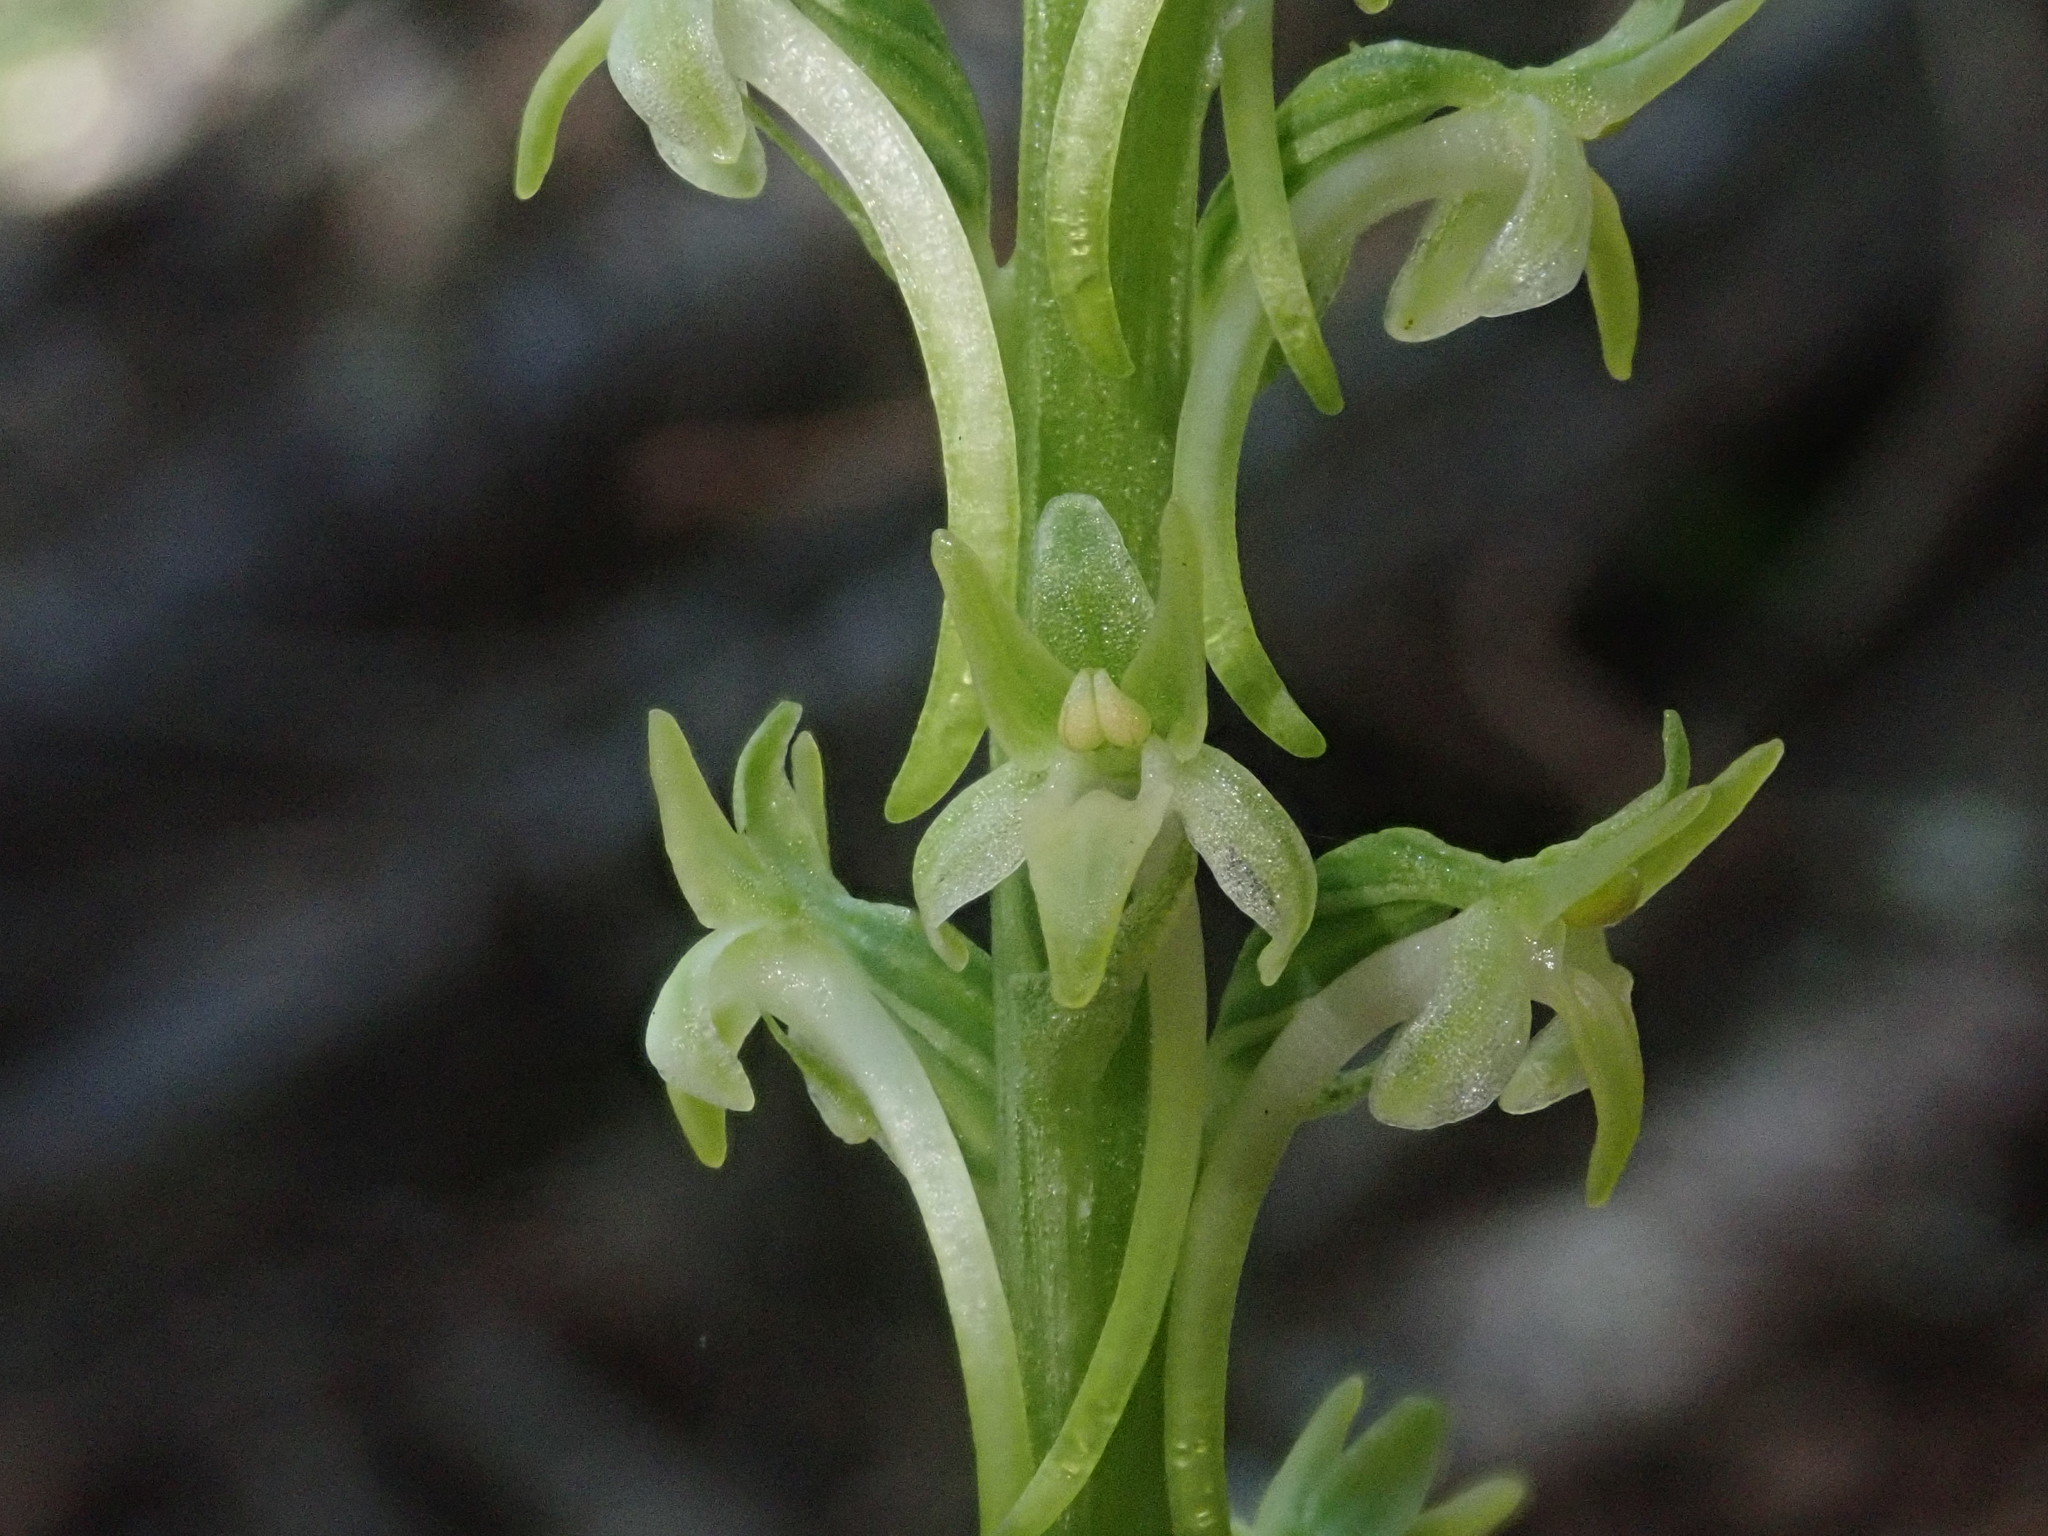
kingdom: Plantae
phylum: Tracheophyta
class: Liliopsida
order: Asparagales
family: Orchidaceae
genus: Platanthera
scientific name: Platanthera elongata
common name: Dense-flowered rein orchid
